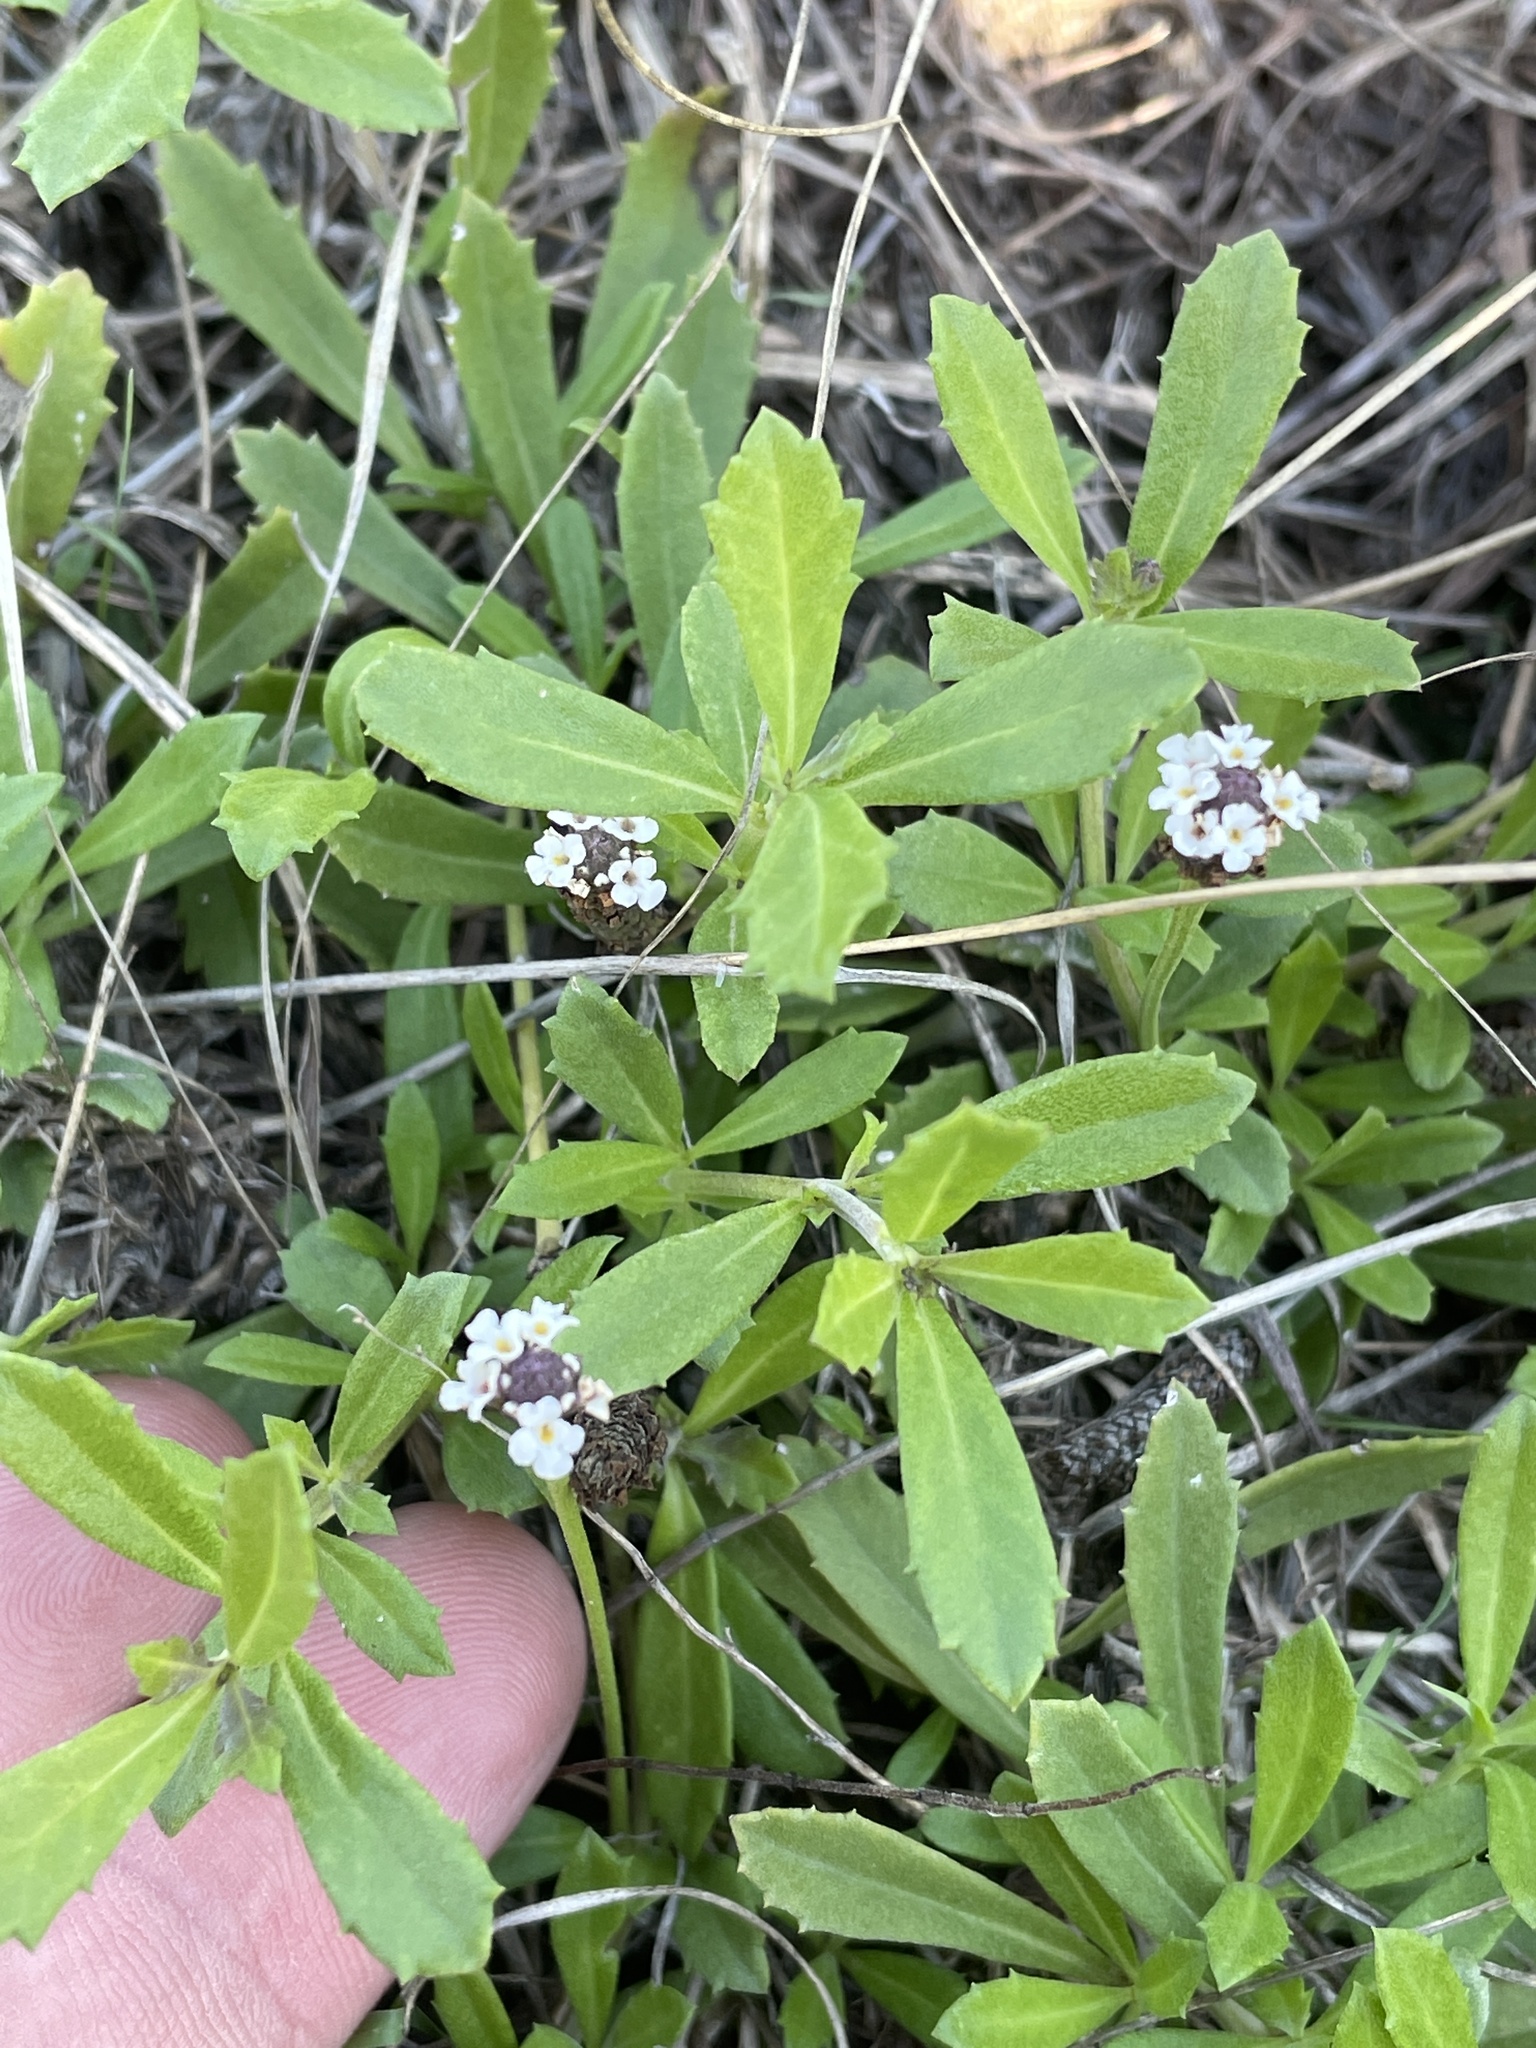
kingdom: Plantae
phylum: Tracheophyta
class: Magnoliopsida
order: Lamiales
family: Verbenaceae
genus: Phyla
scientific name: Phyla nodiflora
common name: Frogfruit
